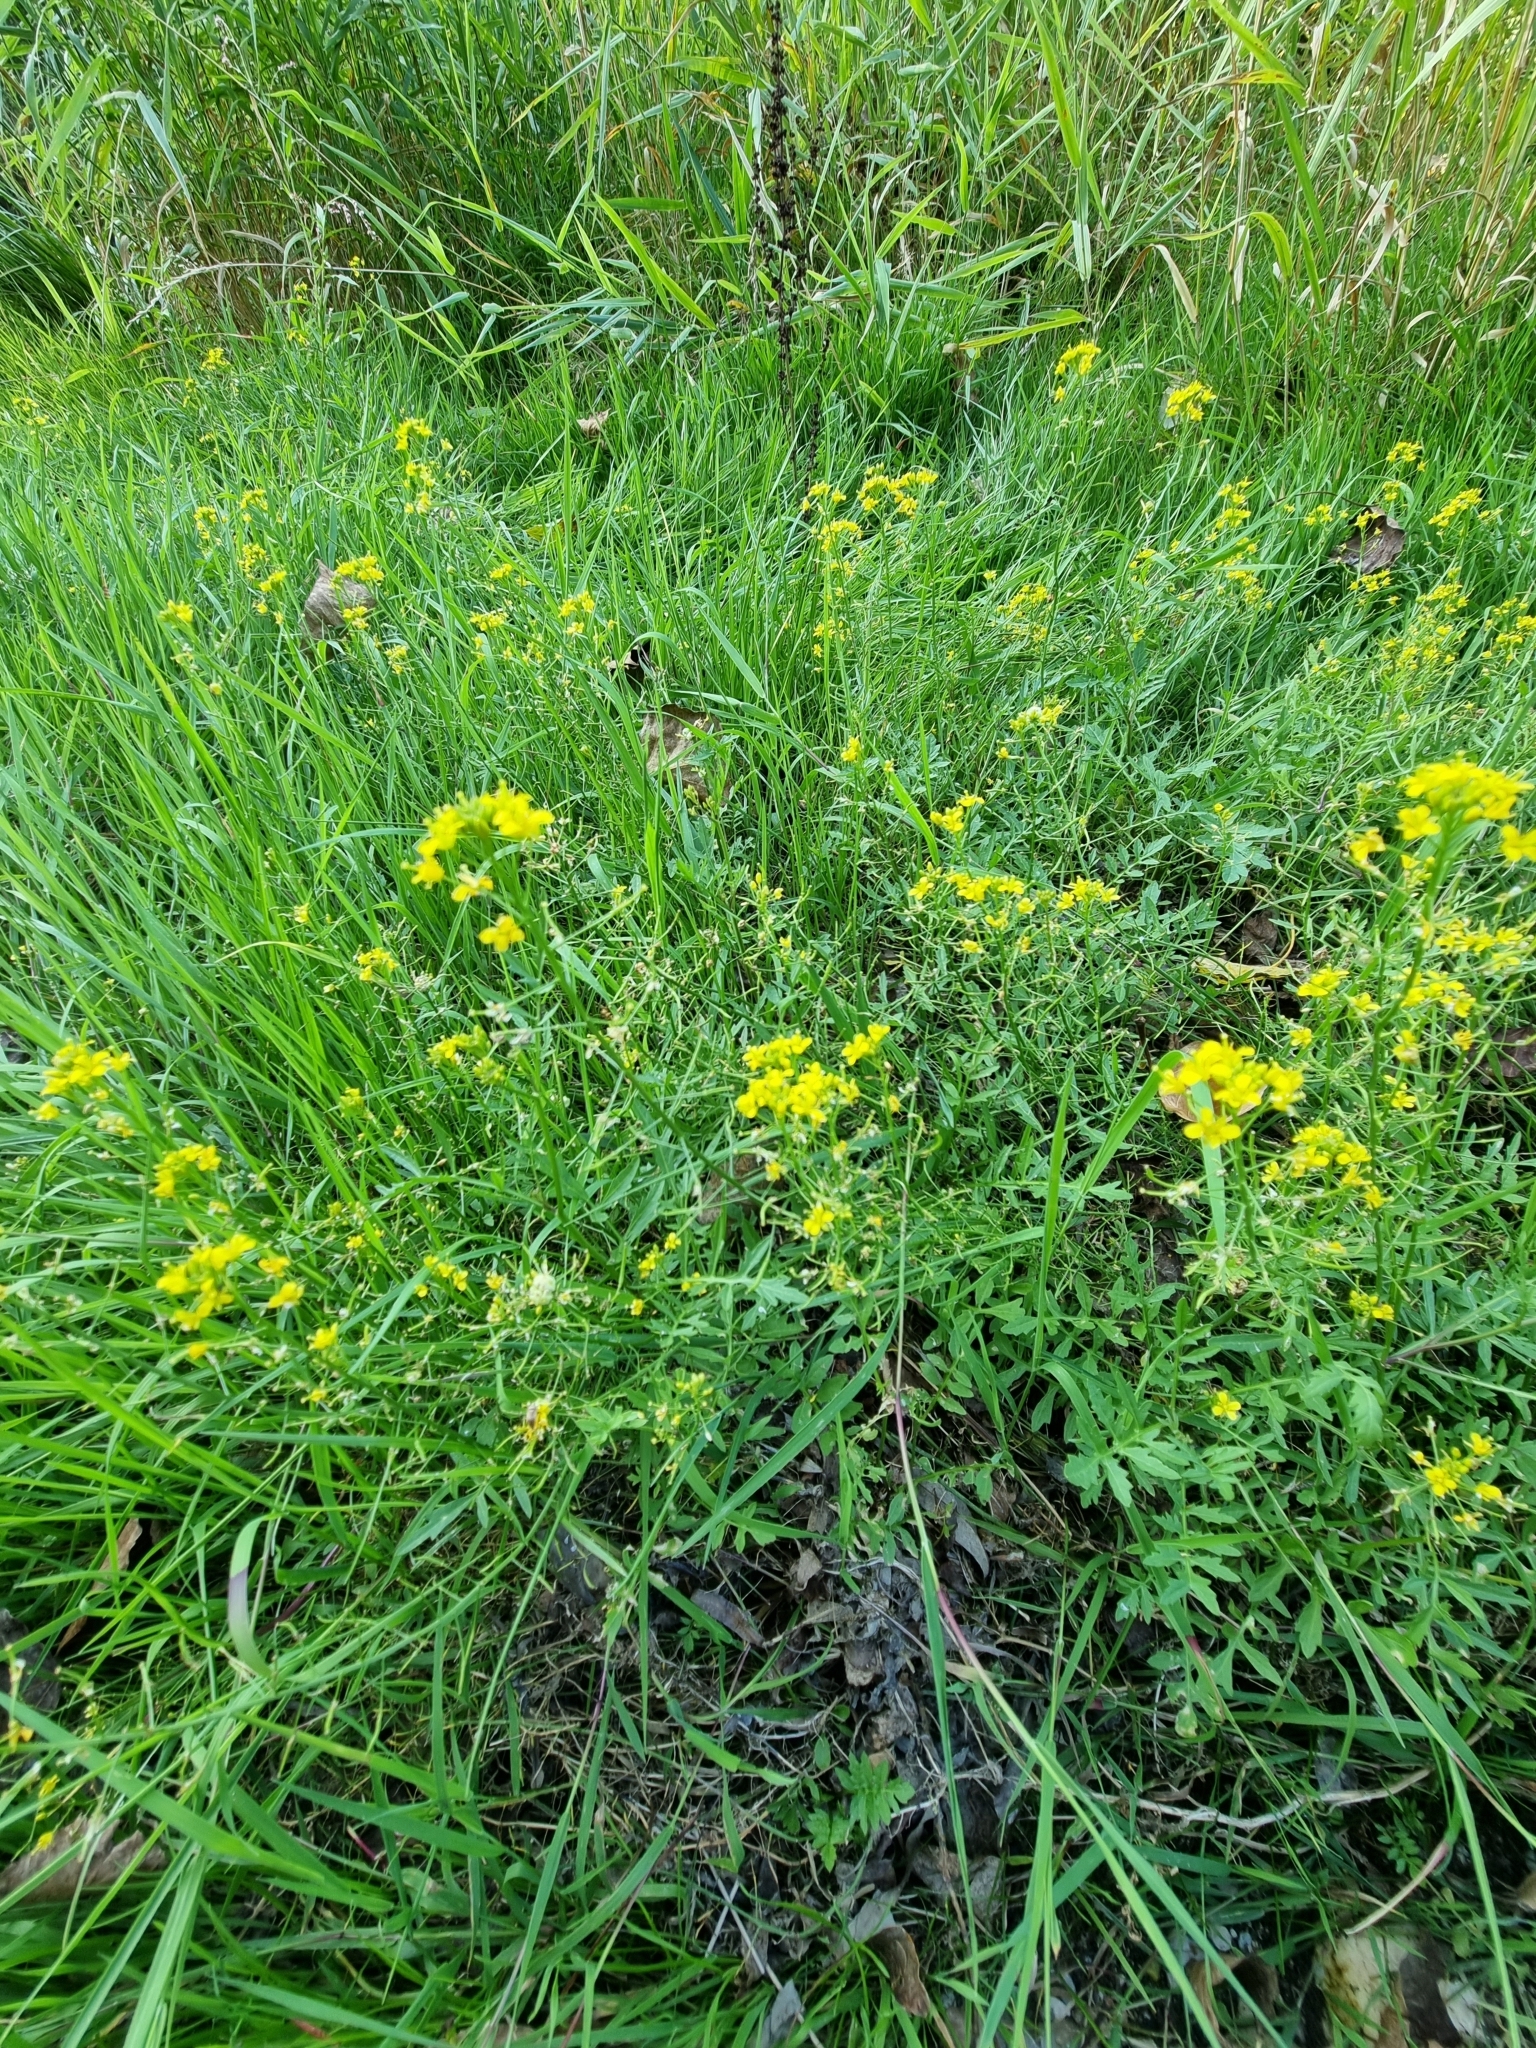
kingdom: Plantae
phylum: Tracheophyta
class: Magnoliopsida
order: Brassicales
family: Brassicaceae
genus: Rorippa
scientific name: Rorippa sylvestris
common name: Creeping yellowcress
